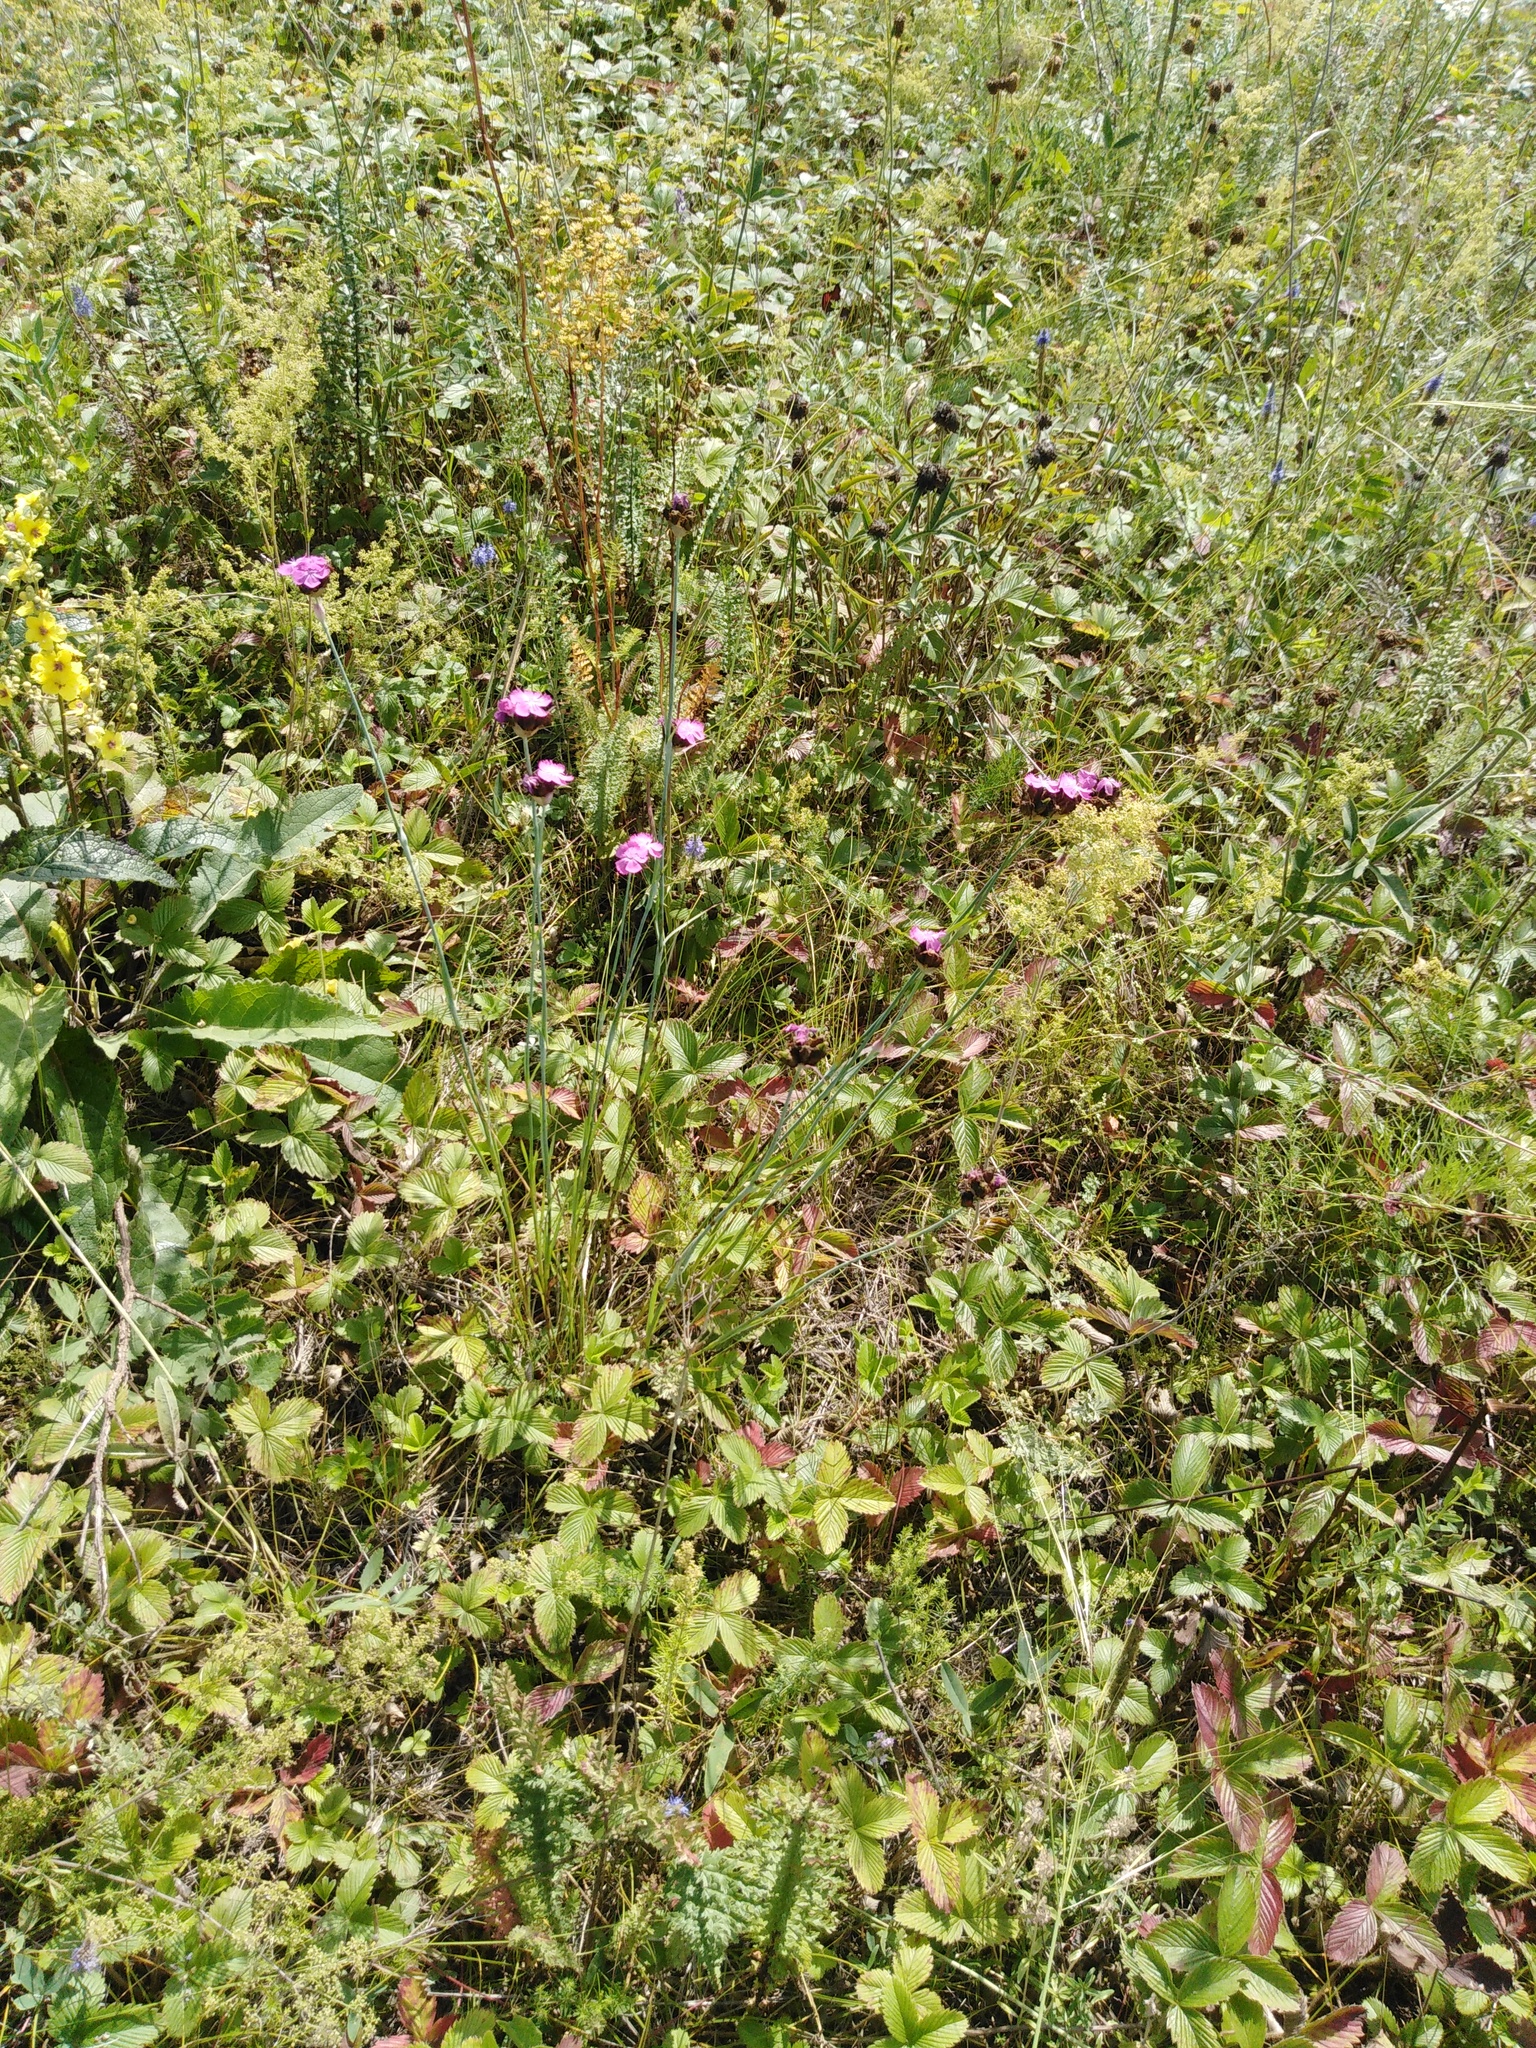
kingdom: Plantae
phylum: Tracheophyta
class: Magnoliopsida
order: Caryophyllales
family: Caryophyllaceae
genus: Dianthus
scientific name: Dianthus capitatus
